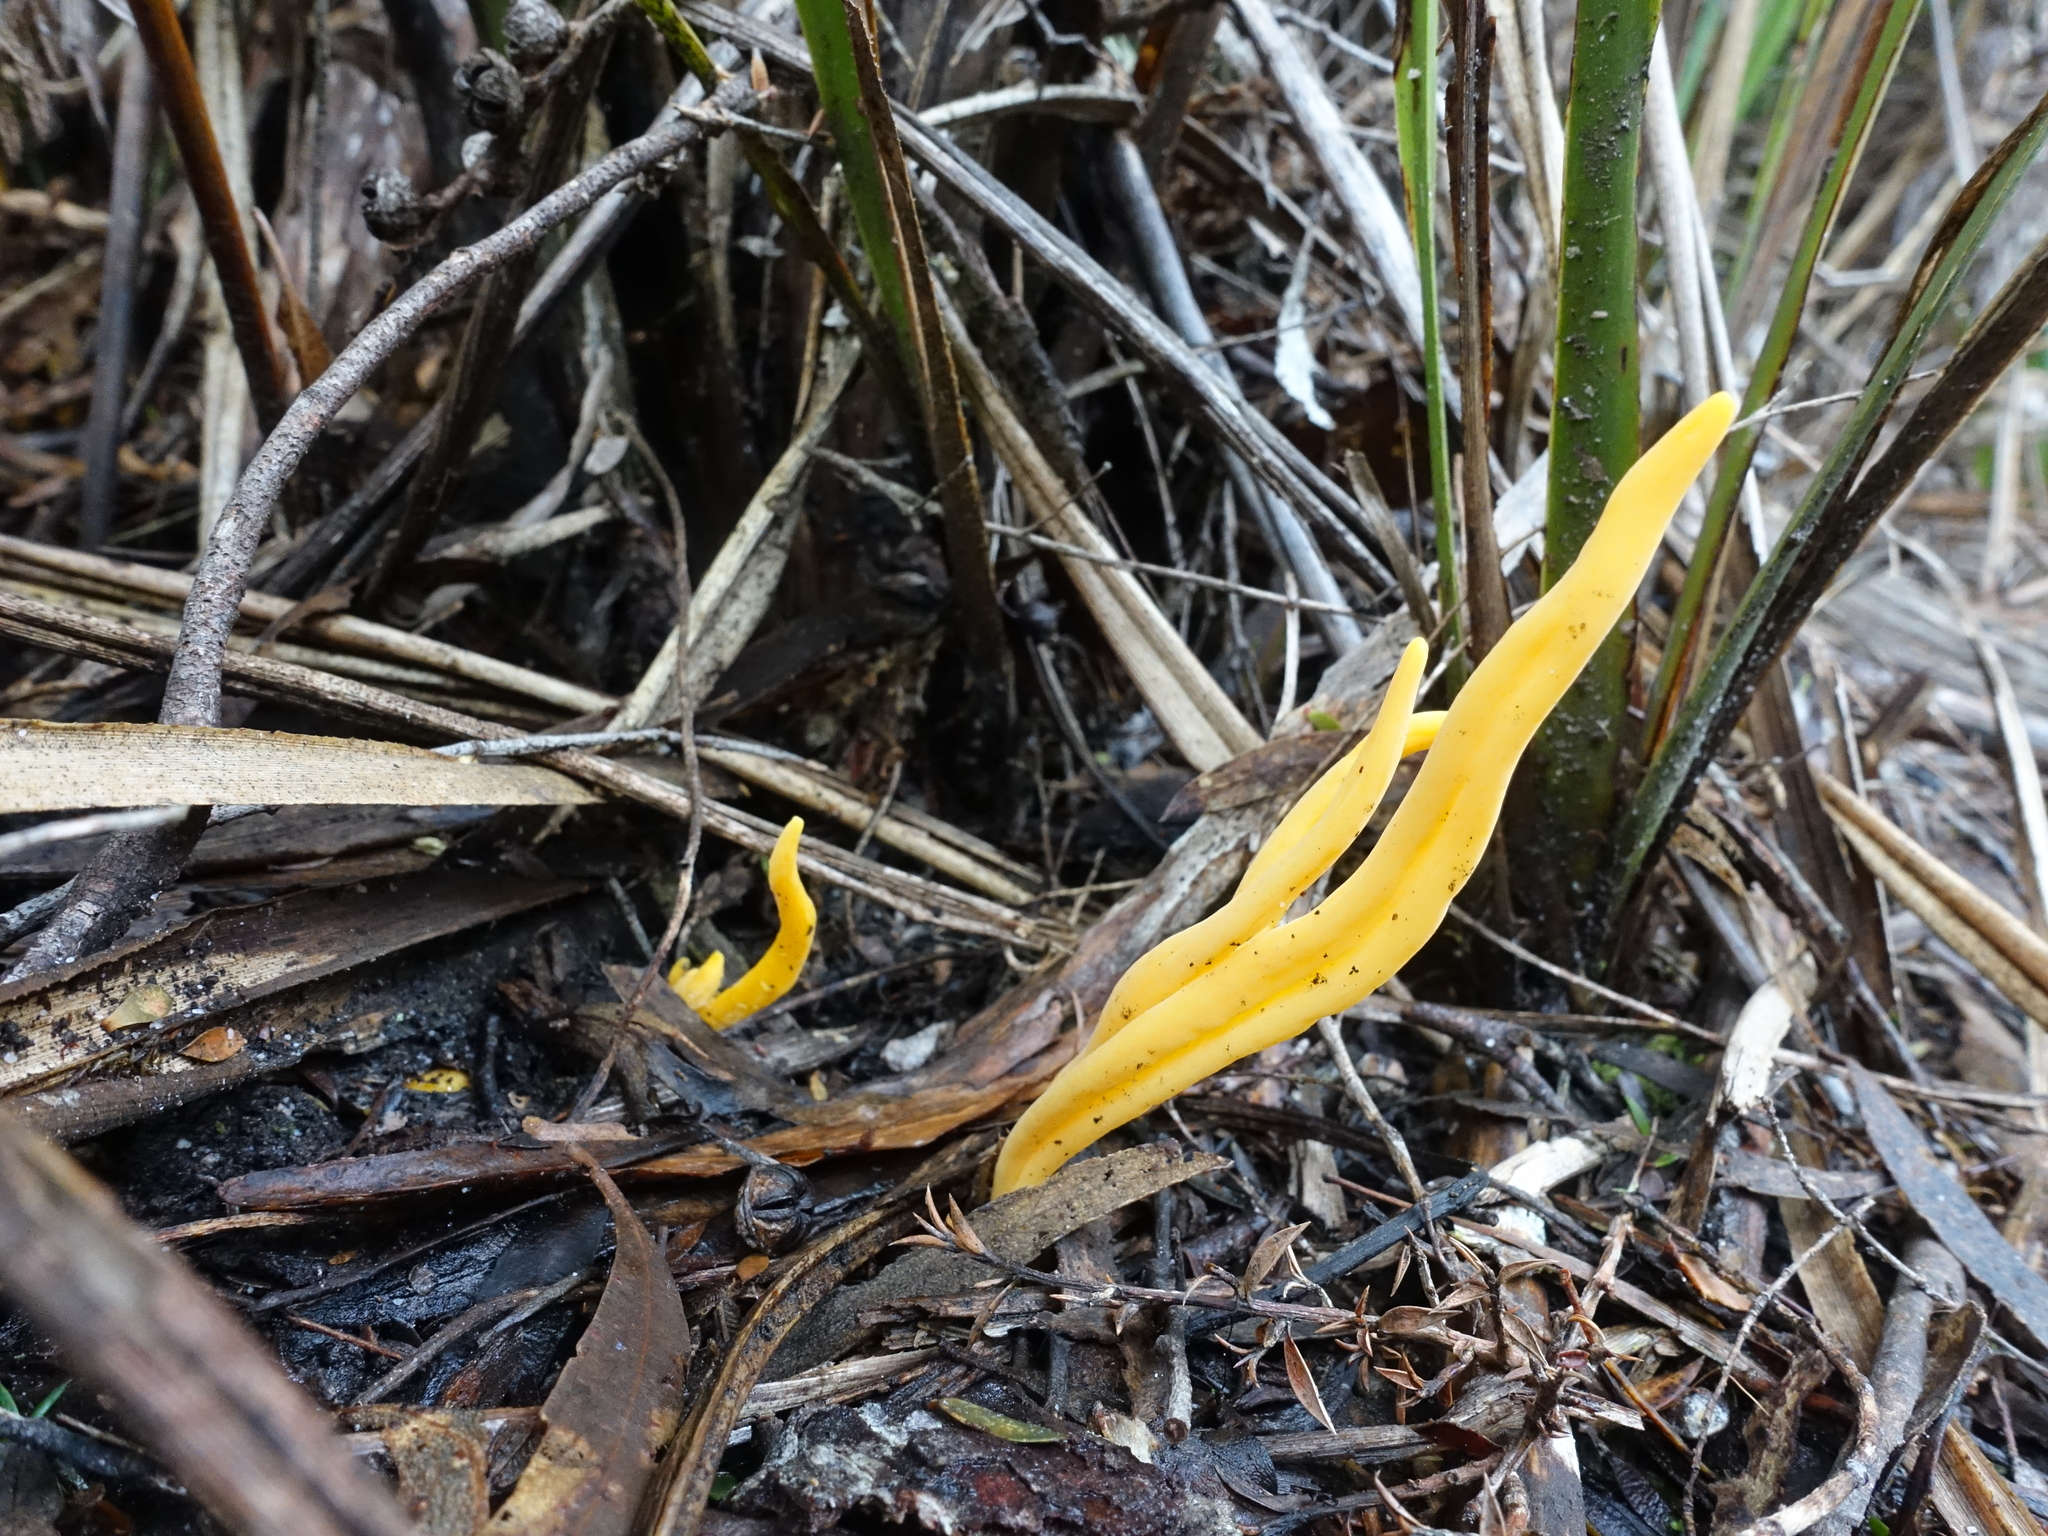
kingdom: Fungi
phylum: Basidiomycota
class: Agaricomycetes
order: Agaricales
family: Clavariaceae
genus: Clavulinopsis
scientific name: Clavulinopsis amoena
